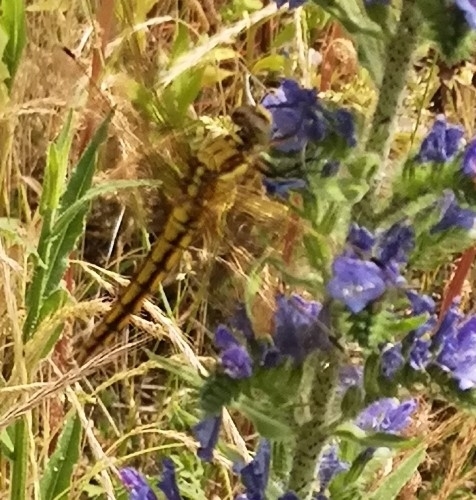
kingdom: Animalia
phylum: Arthropoda
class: Insecta
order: Odonata
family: Libellulidae
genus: Orthetrum
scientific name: Orthetrum cancellatum
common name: Black-tailed skimmer
